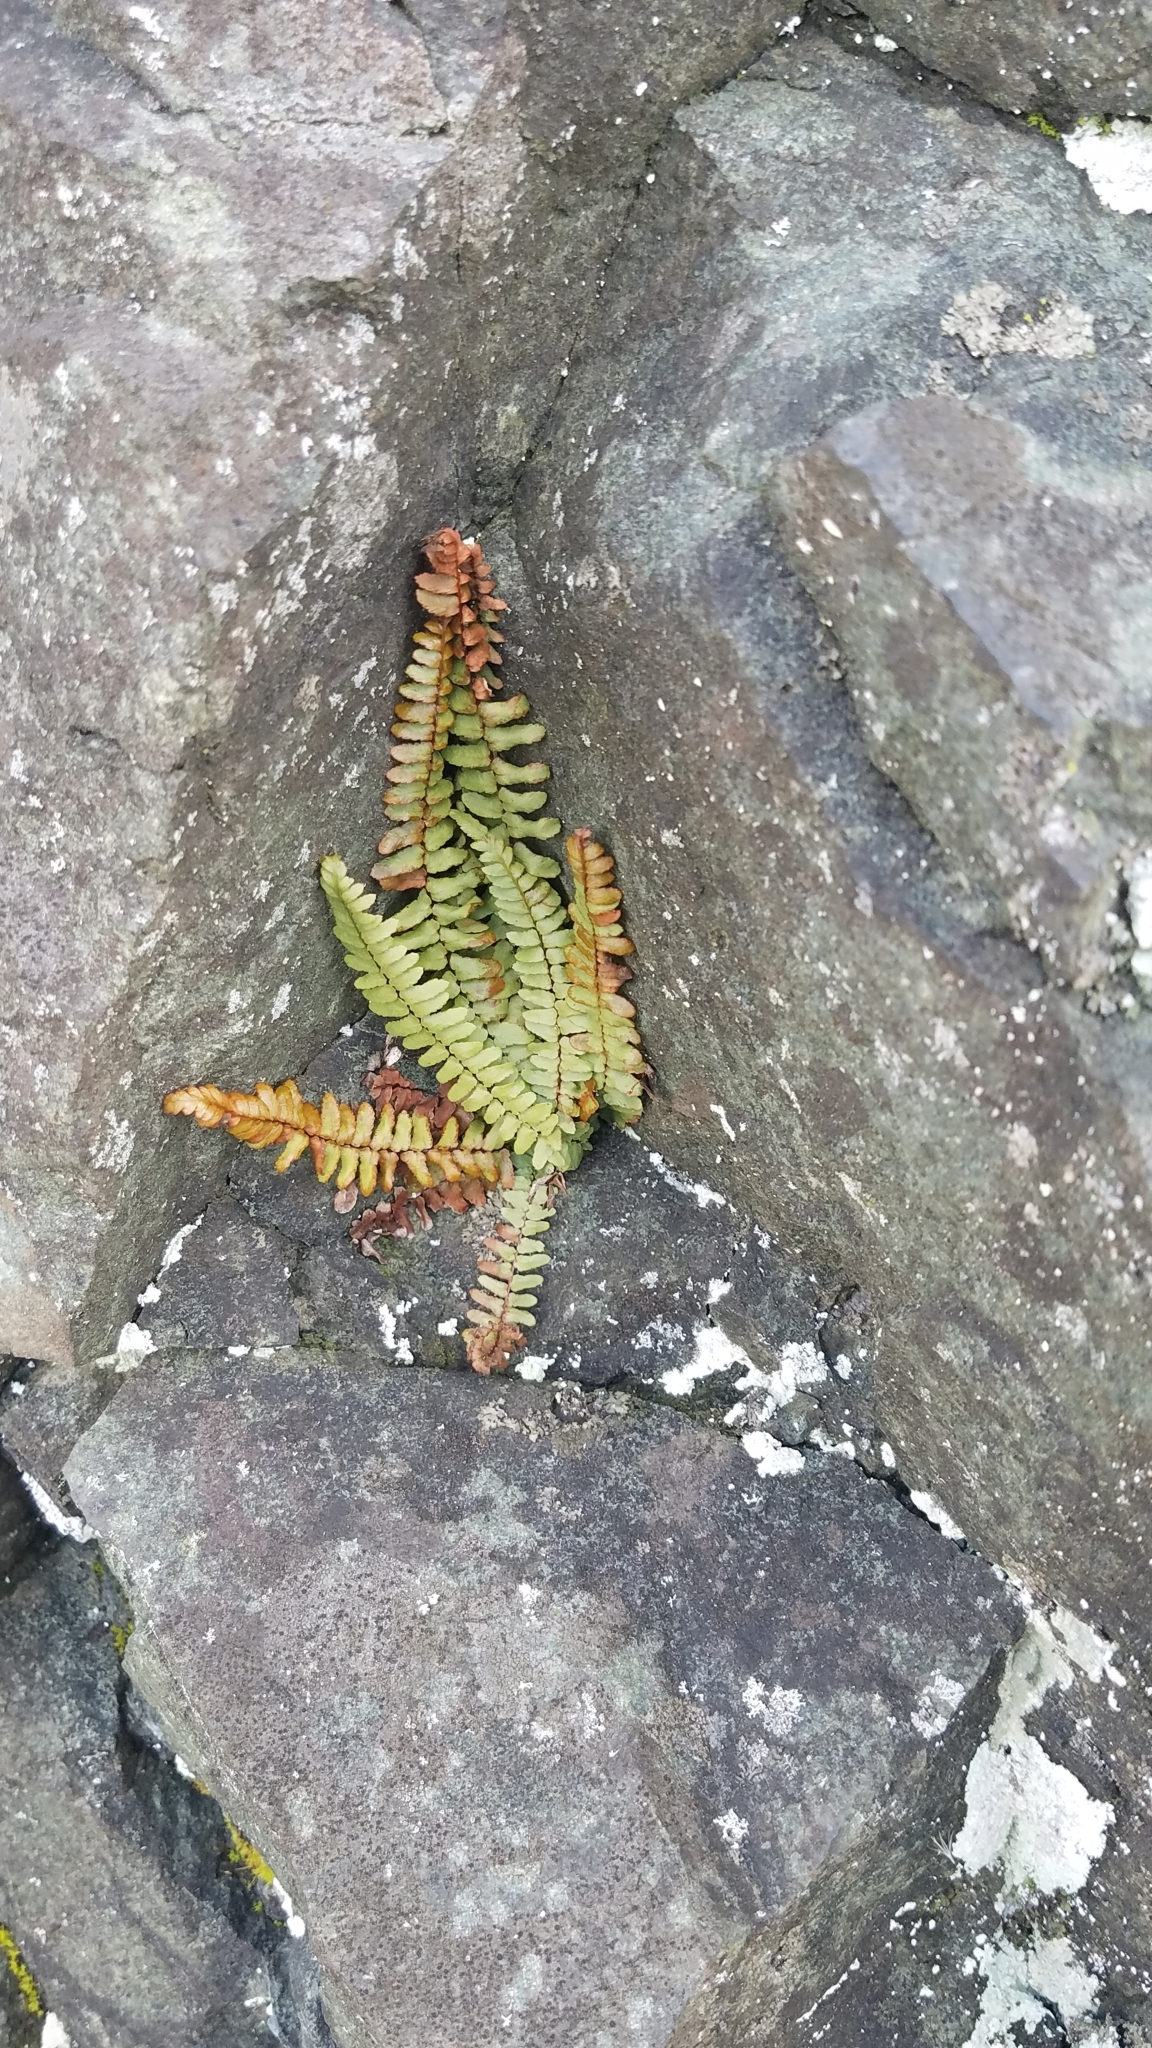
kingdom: Plantae
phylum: Tracheophyta
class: Polypodiopsida
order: Polypodiales
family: Aspleniaceae
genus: Asplenium
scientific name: Asplenium platyneuron
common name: Ebony spleenwort
